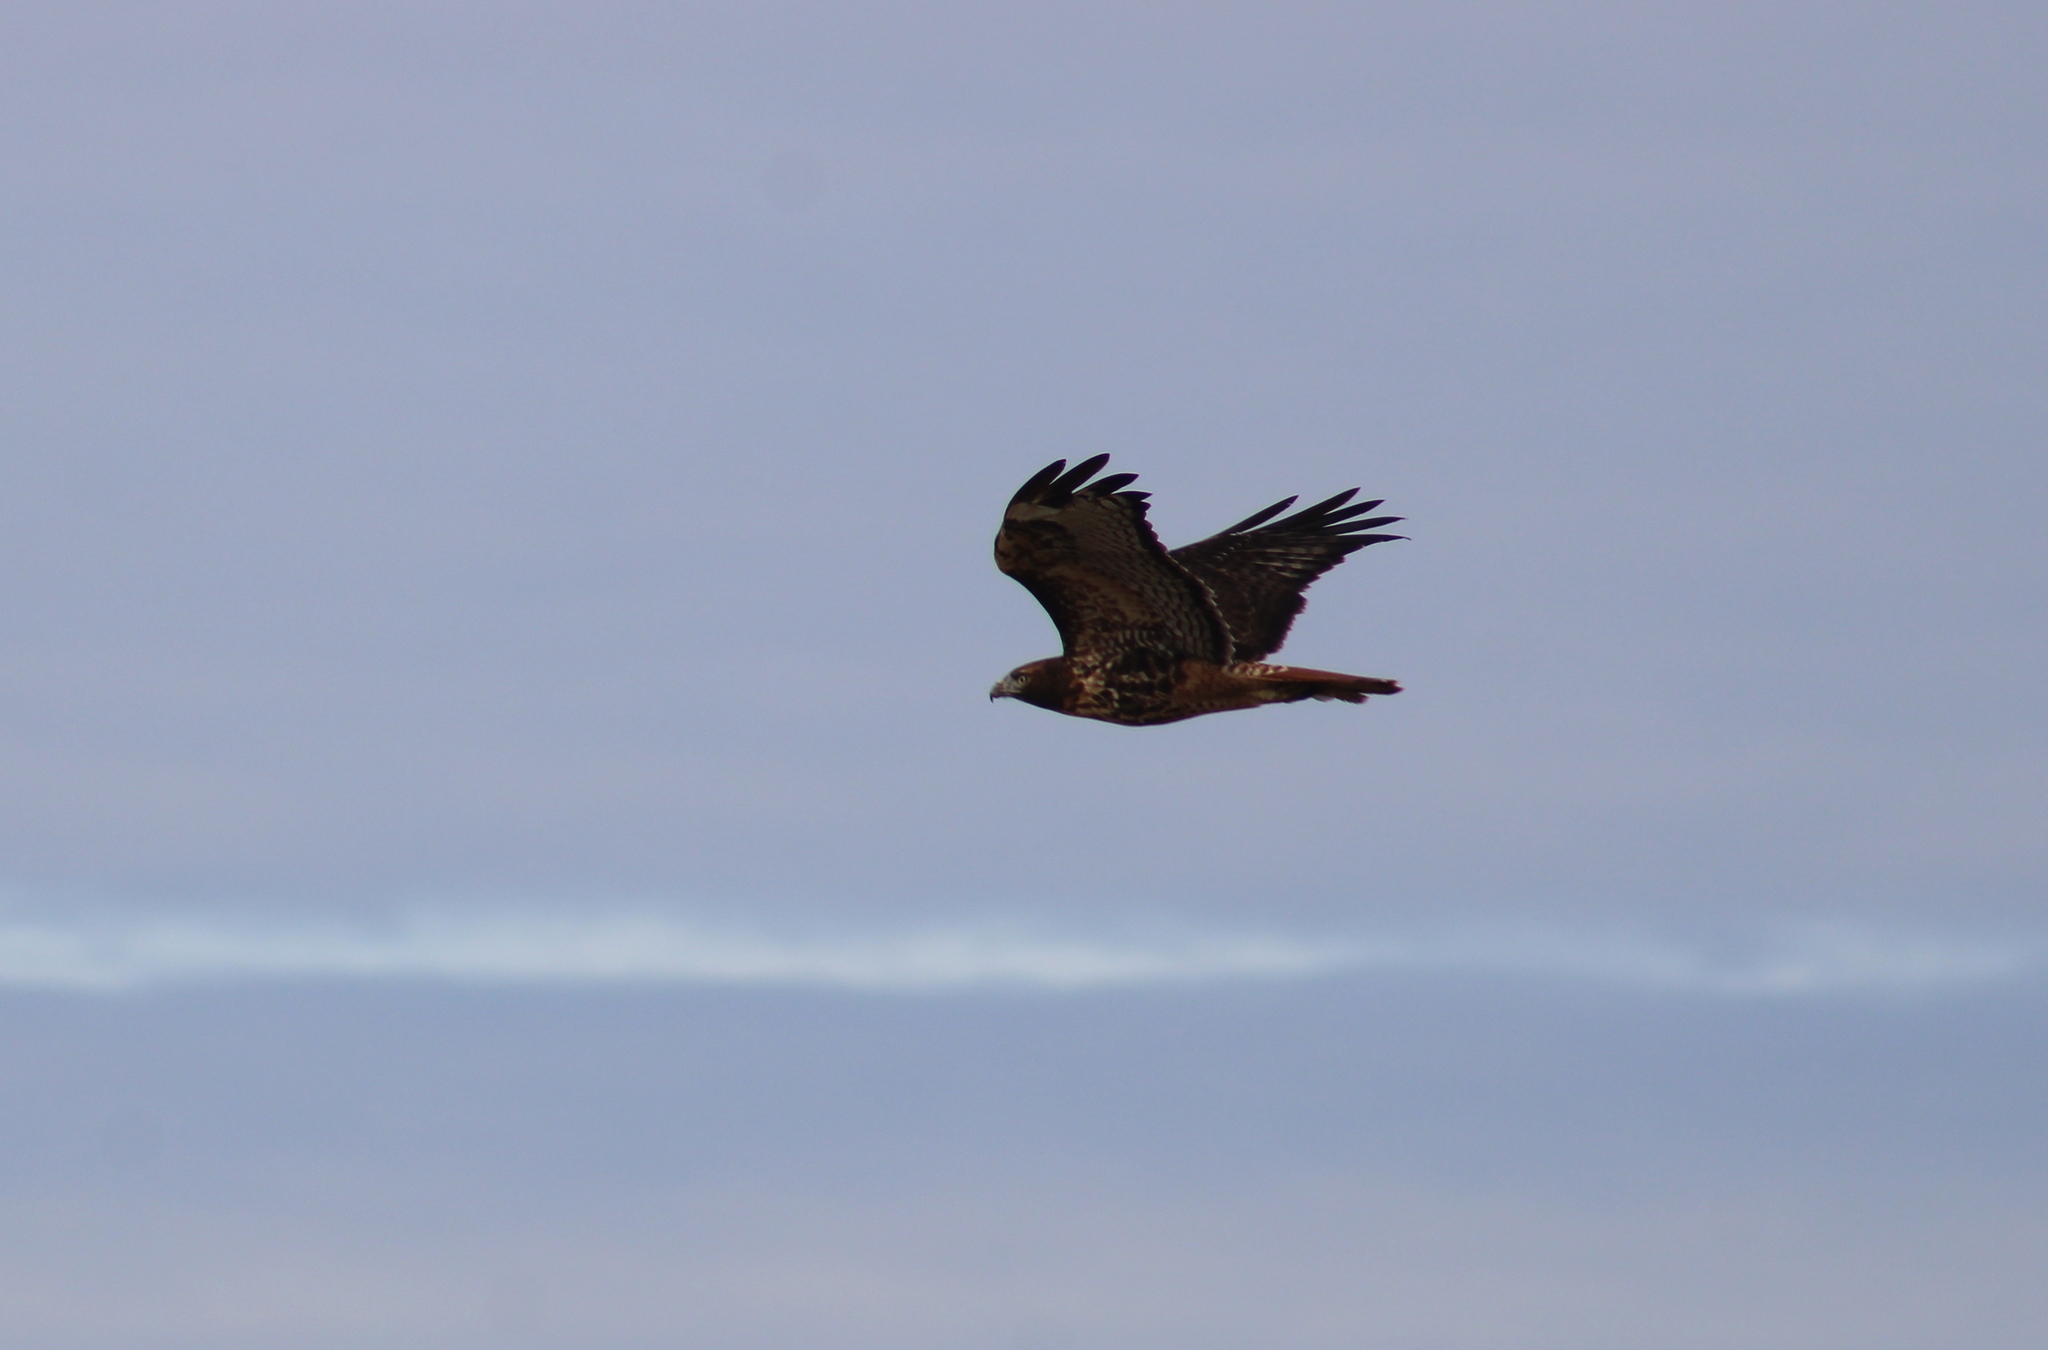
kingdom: Animalia
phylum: Chordata
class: Aves
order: Accipitriformes
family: Accipitridae
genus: Buteo
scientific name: Buteo jamaicensis
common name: Red-tailed hawk
